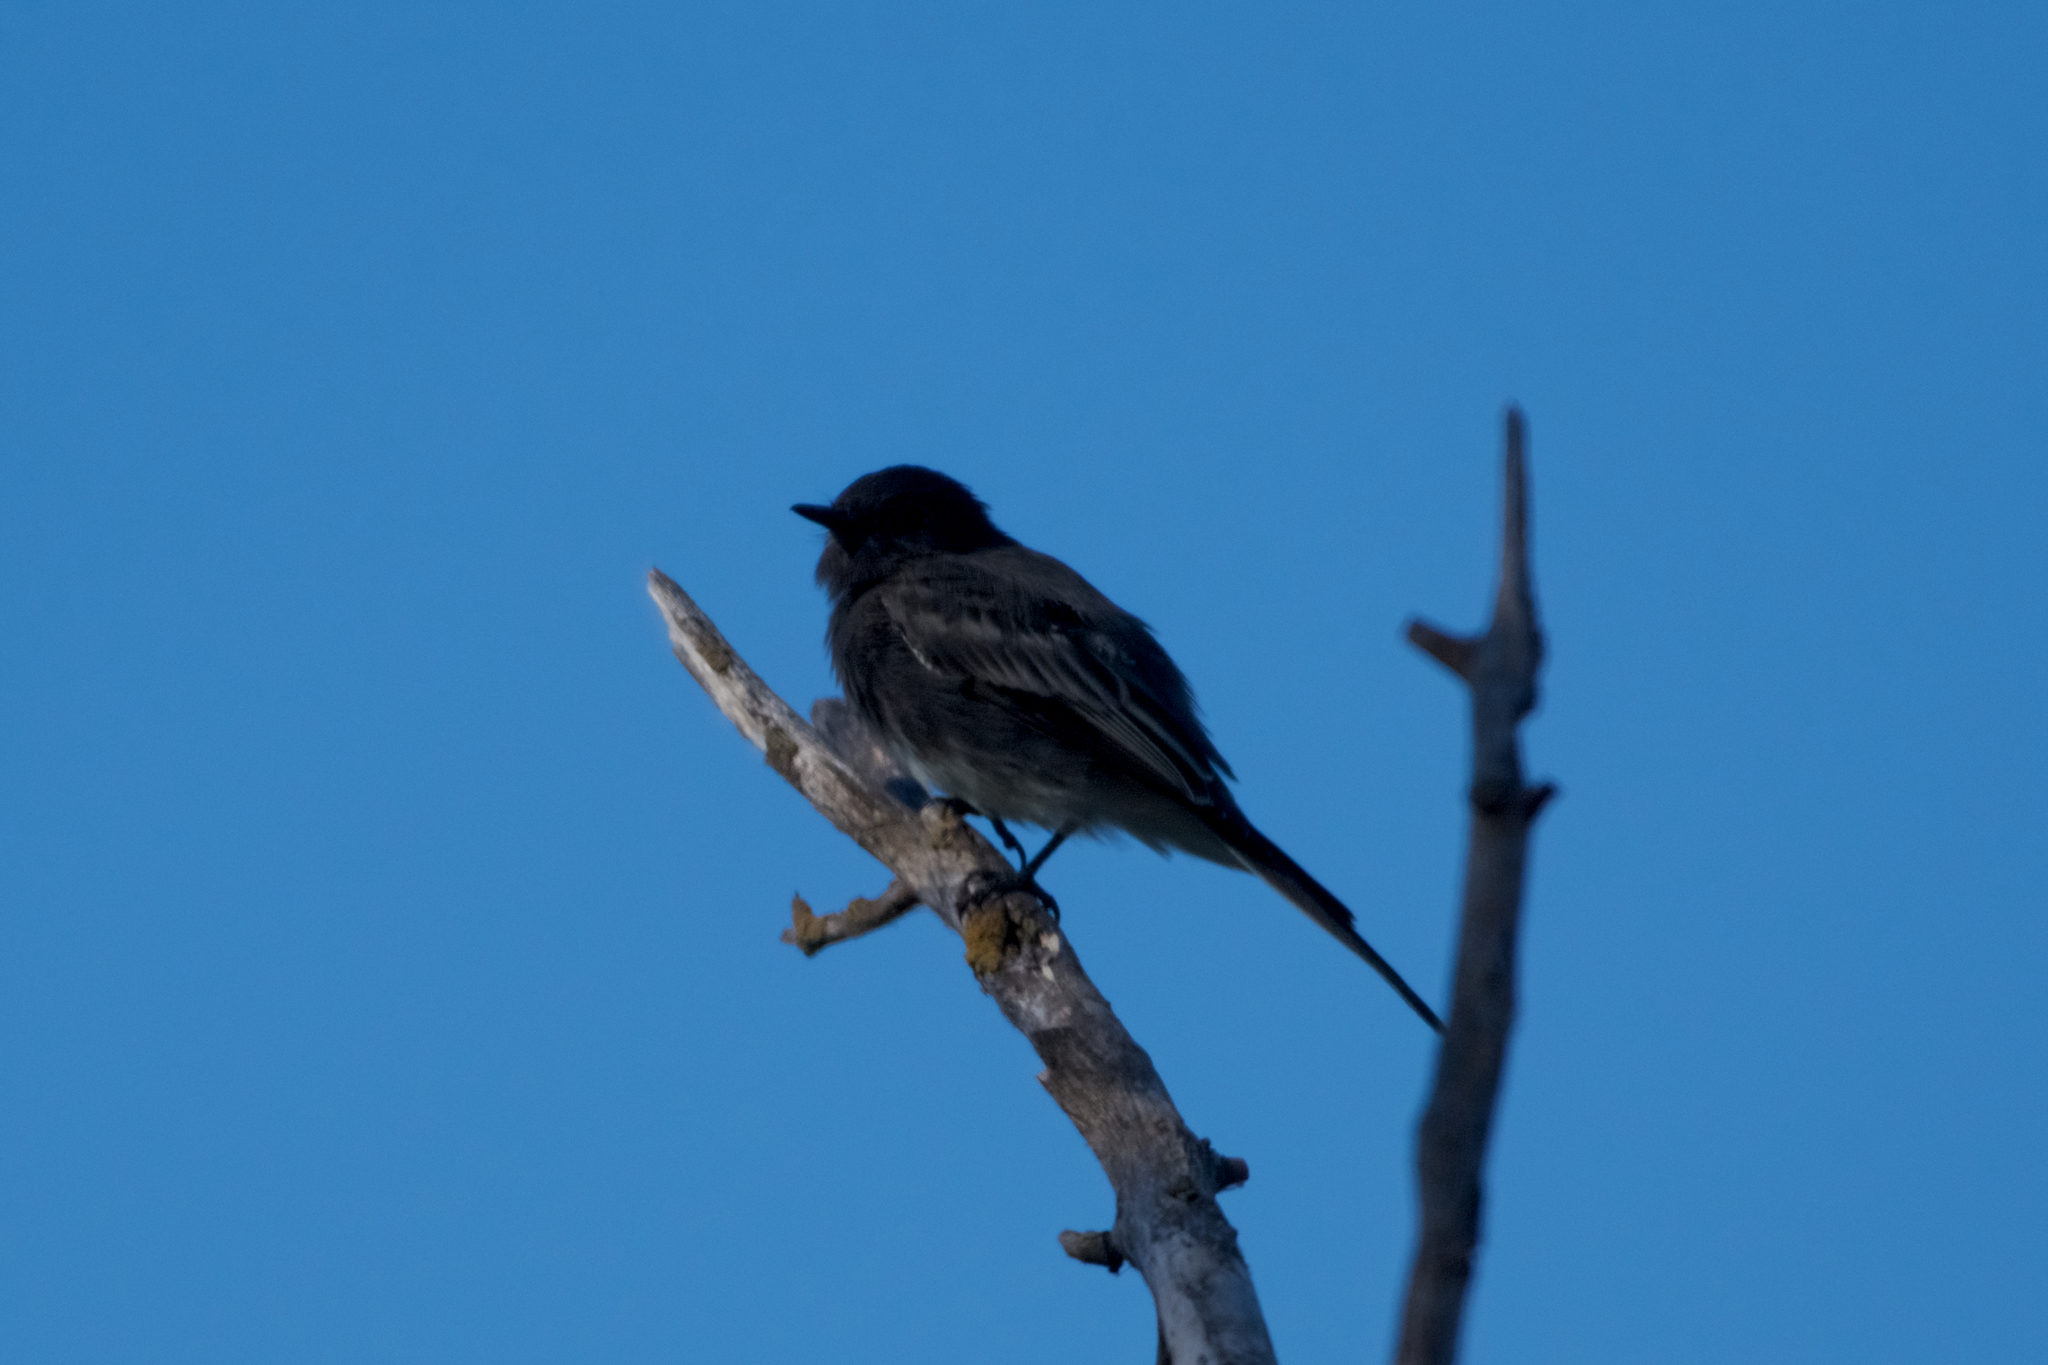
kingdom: Animalia
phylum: Chordata
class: Aves
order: Passeriformes
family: Tyrannidae
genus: Sayornis
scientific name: Sayornis nigricans
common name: Black phoebe
